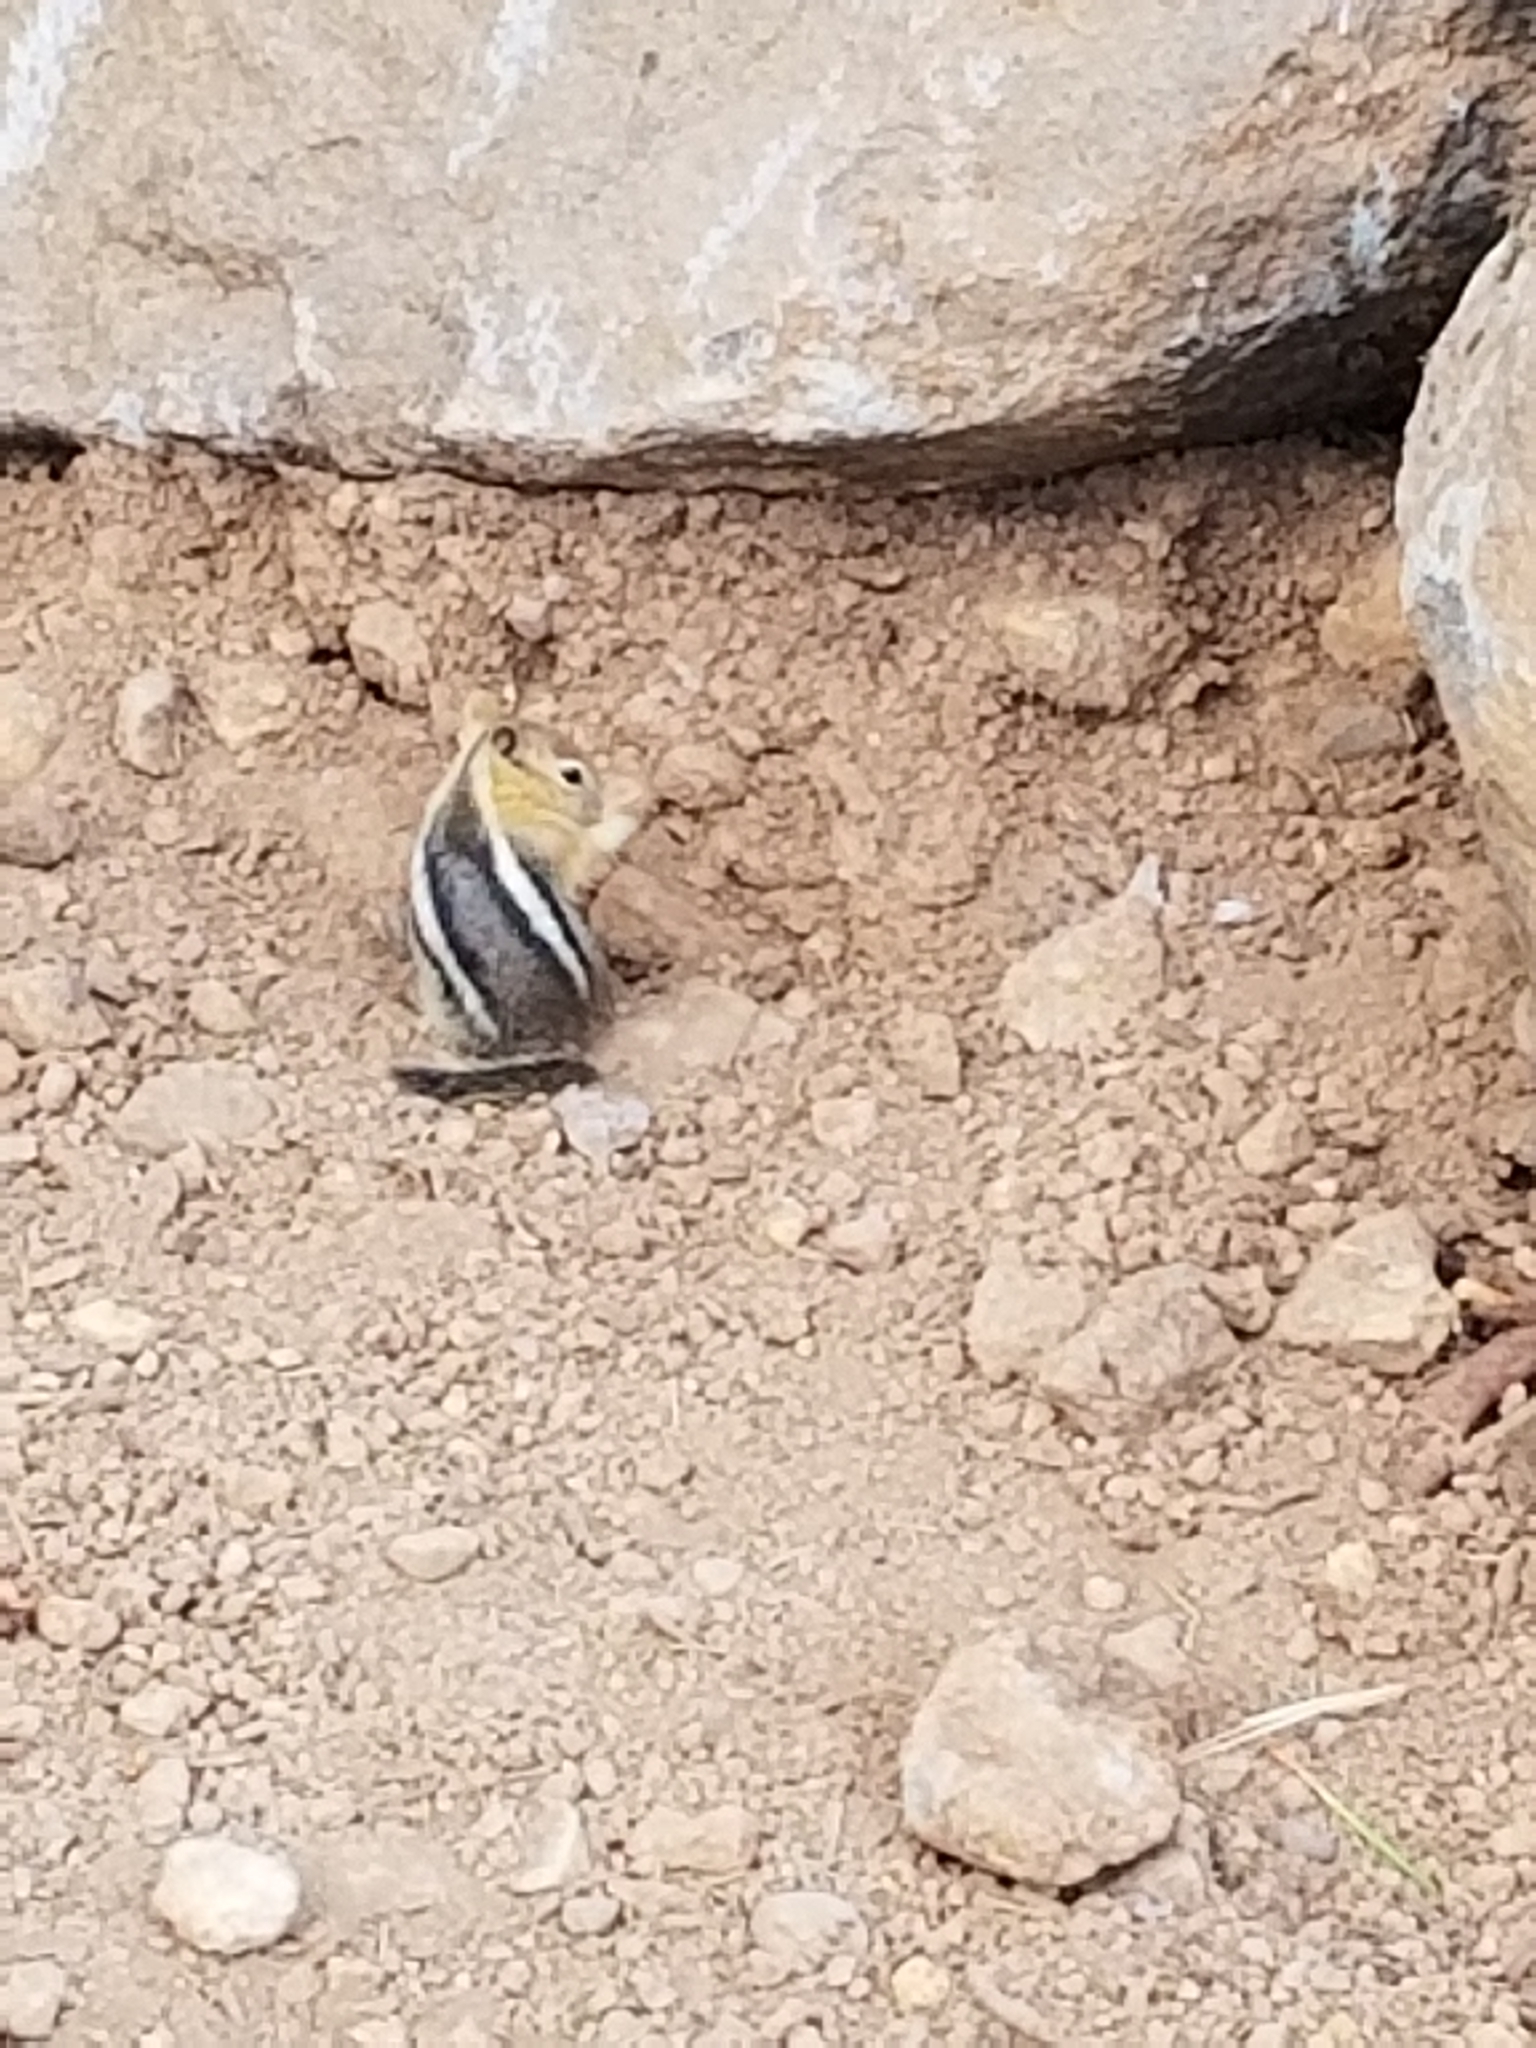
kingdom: Animalia
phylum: Chordata
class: Mammalia
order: Rodentia
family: Sciuridae
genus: Callospermophilus
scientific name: Callospermophilus lateralis
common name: Golden-mantled ground squirrel
